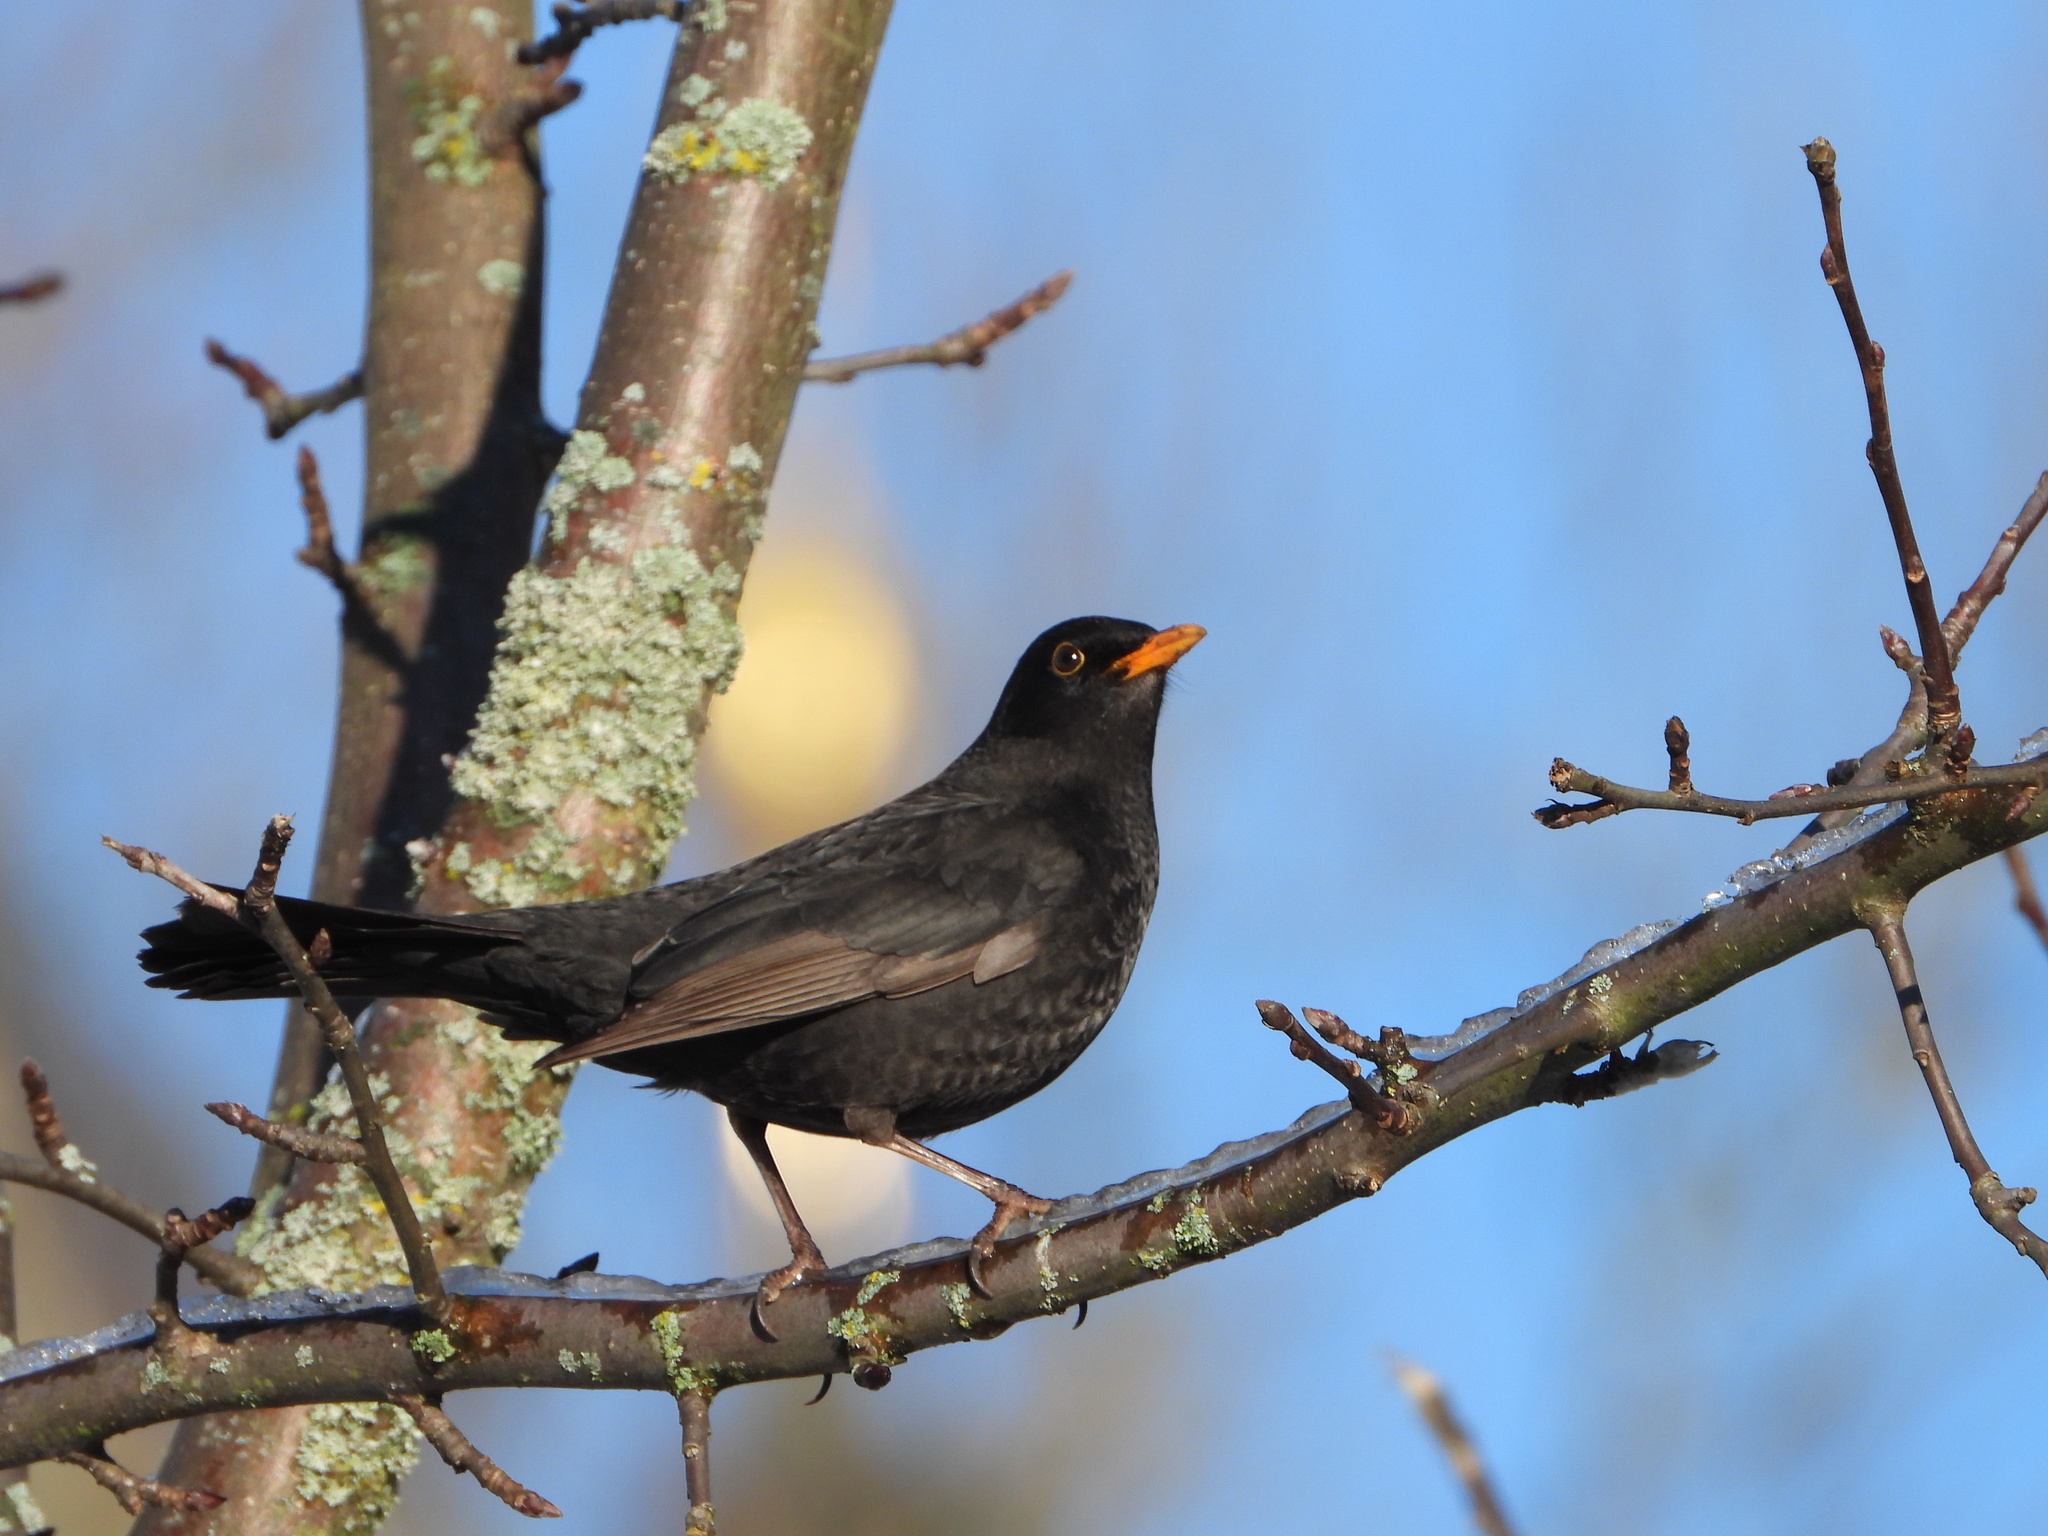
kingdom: Animalia
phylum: Chordata
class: Aves
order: Passeriformes
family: Turdidae
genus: Turdus
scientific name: Turdus merula
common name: Common blackbird
